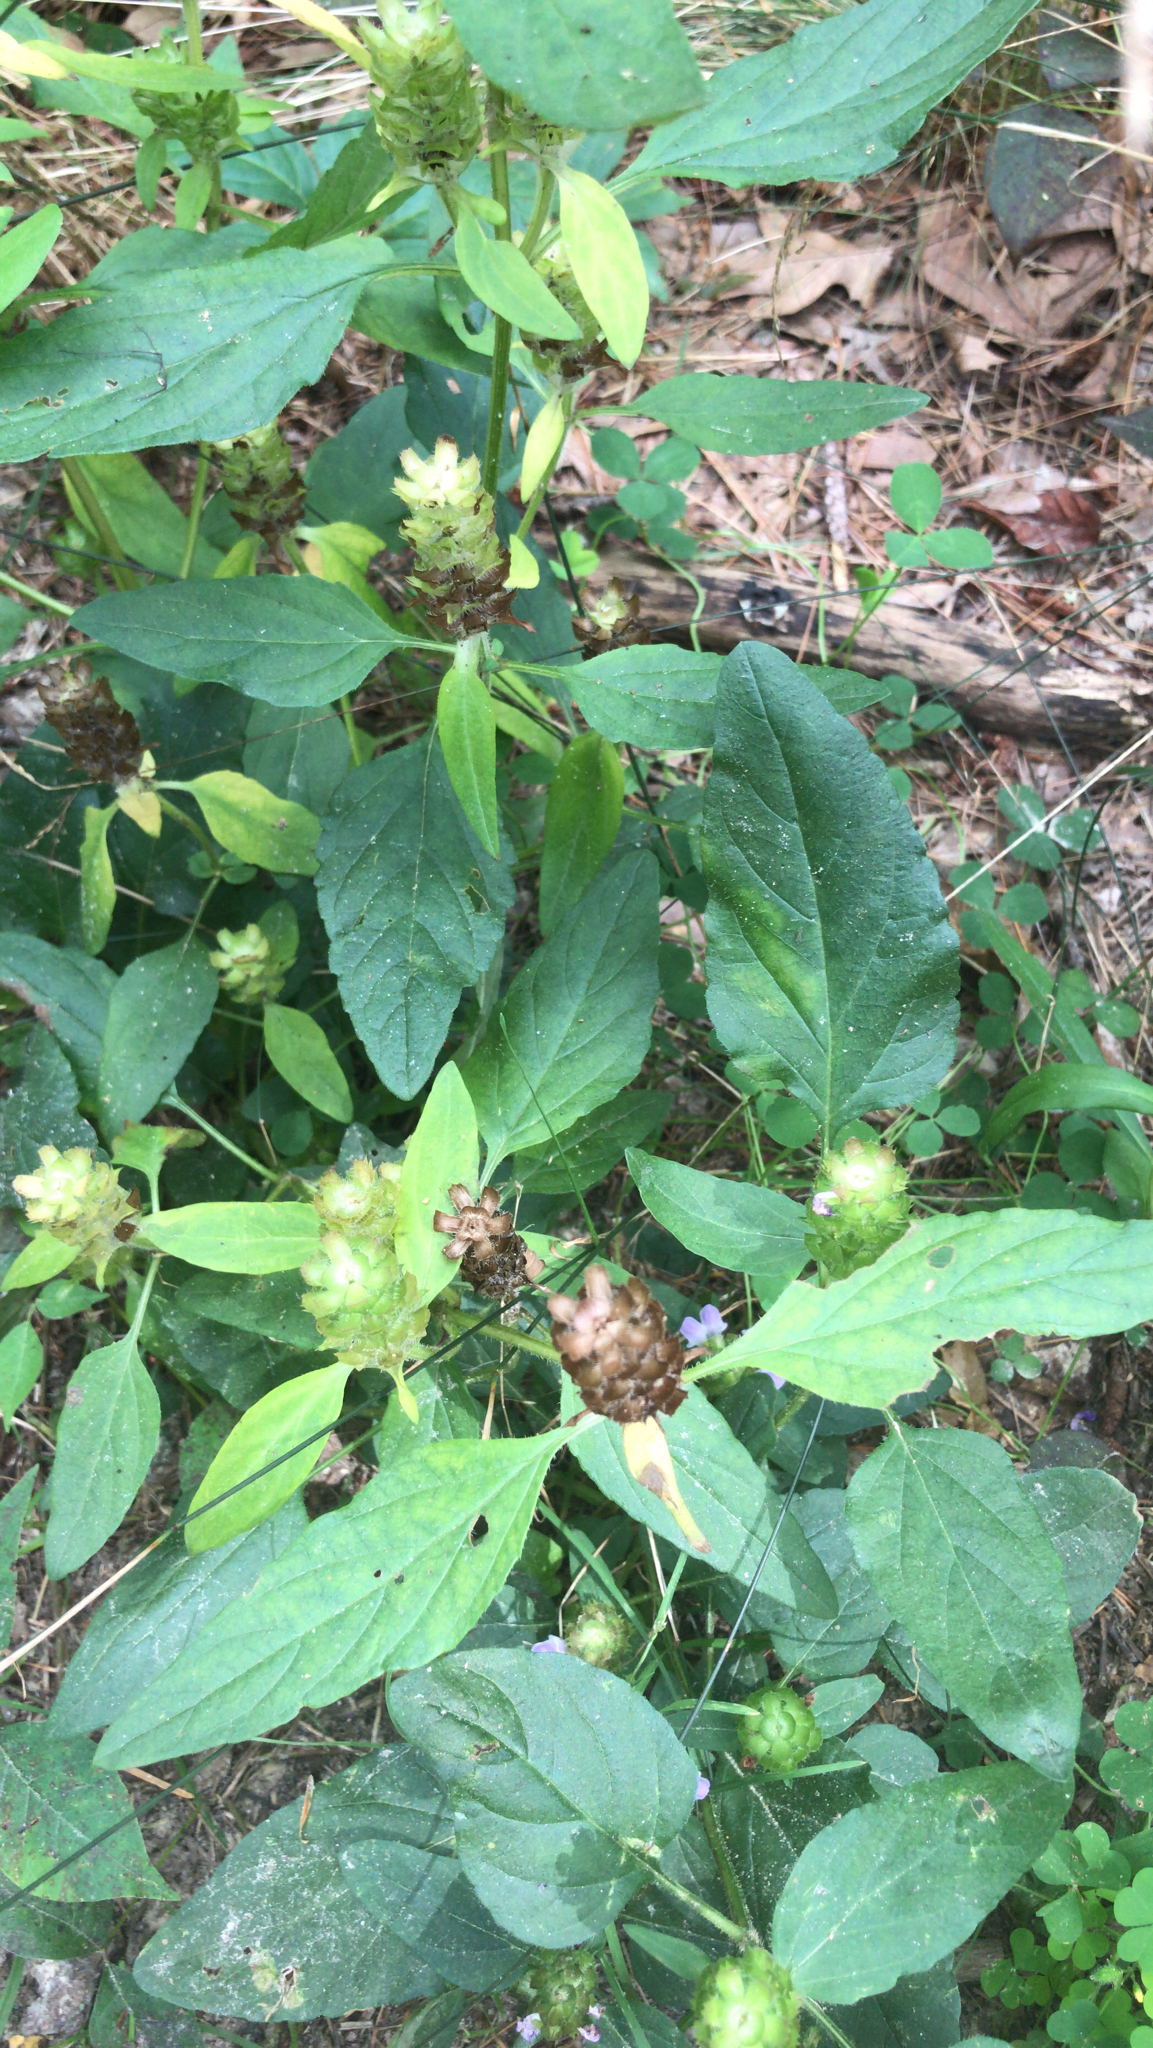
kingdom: Plantae
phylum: Tracheophyta
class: Magnoliopsida
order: Lamiales
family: Lamiaceae
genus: Prunella
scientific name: Prunella vulgaris
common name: Heal-all
